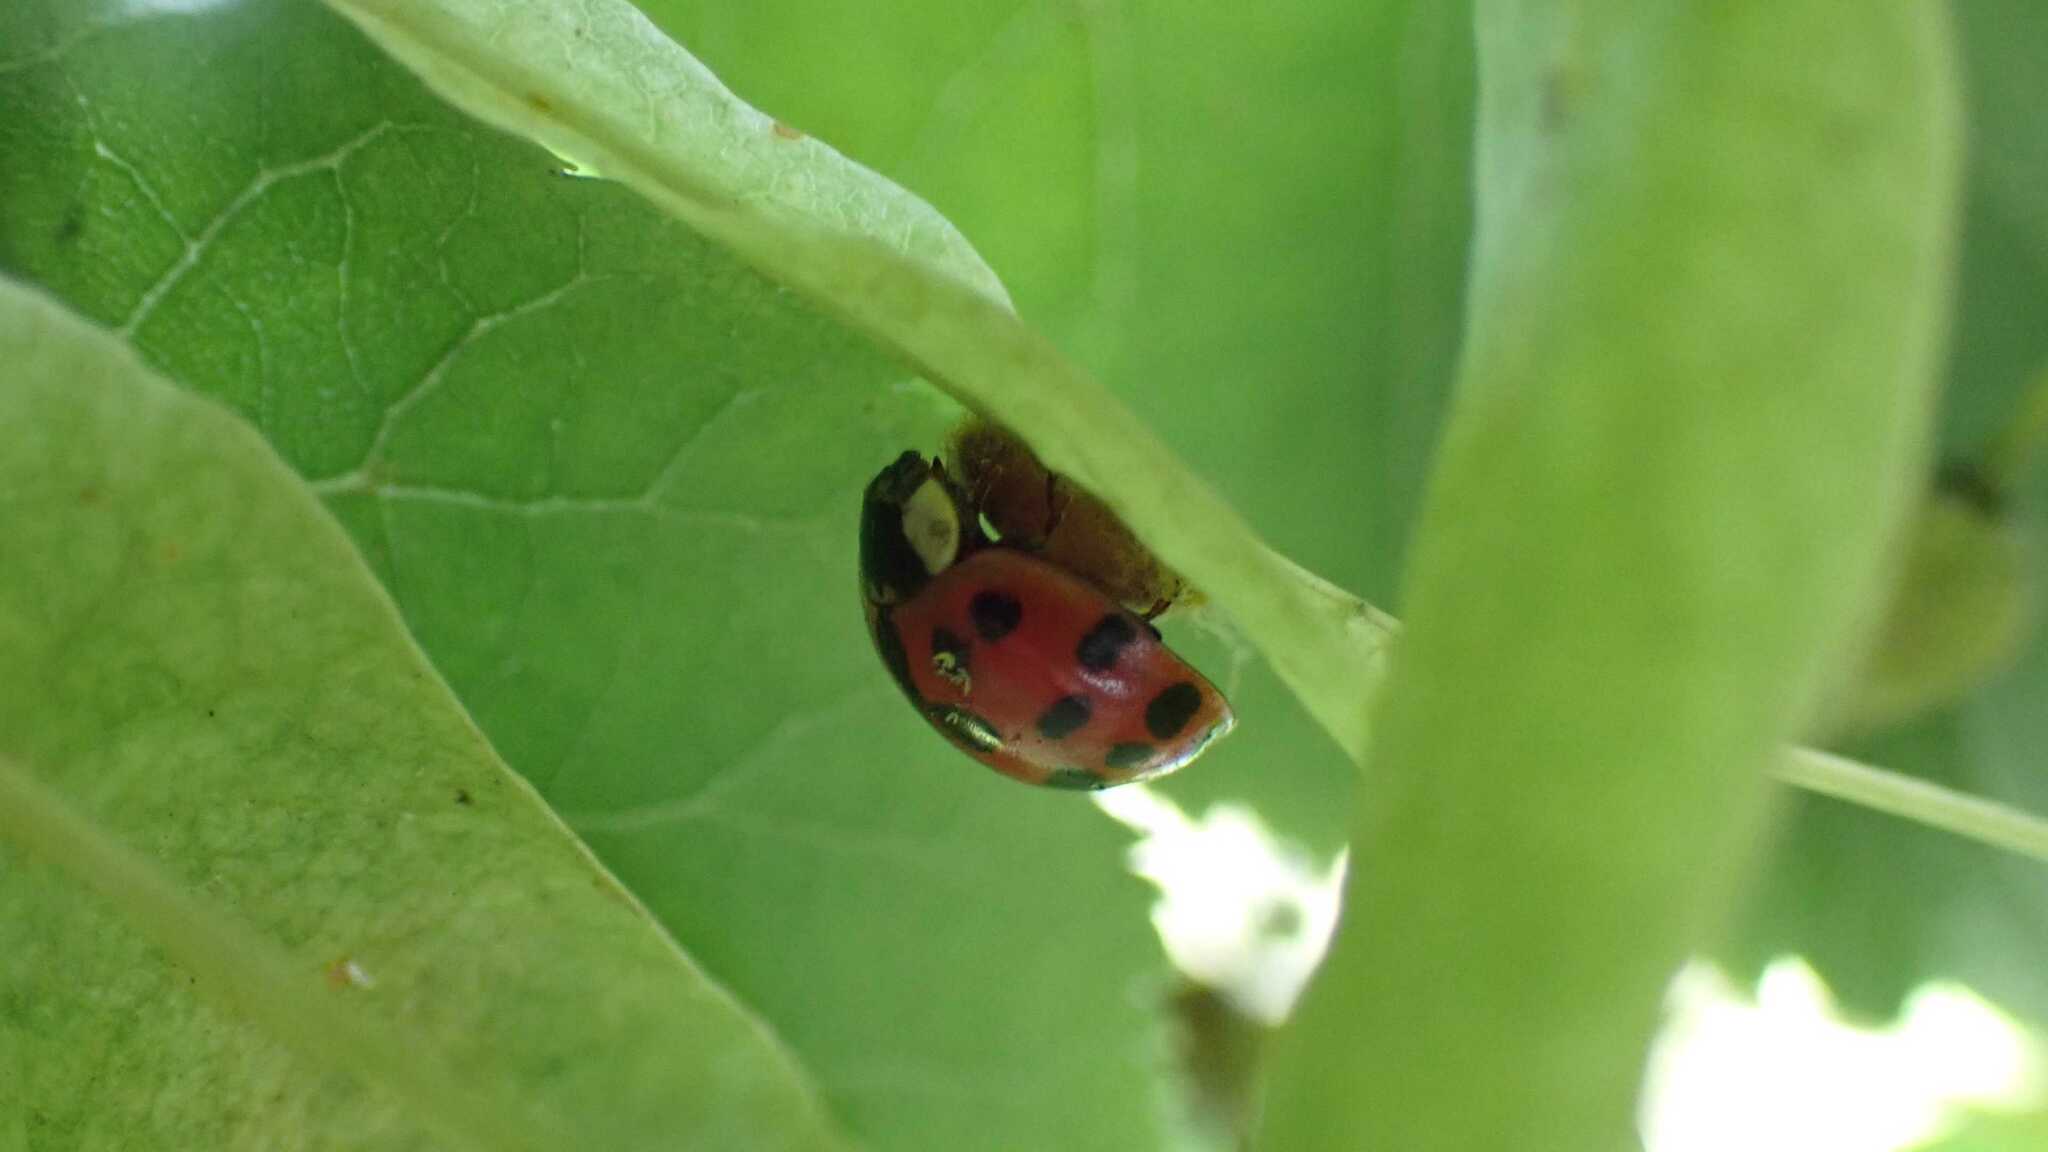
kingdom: Fungi
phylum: Ascomycota
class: Laboulbeniomycetes
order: Laboulbeniales
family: Laboulbeniaceae
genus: Hesperomyces
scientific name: Hesperomyces harmoniae
